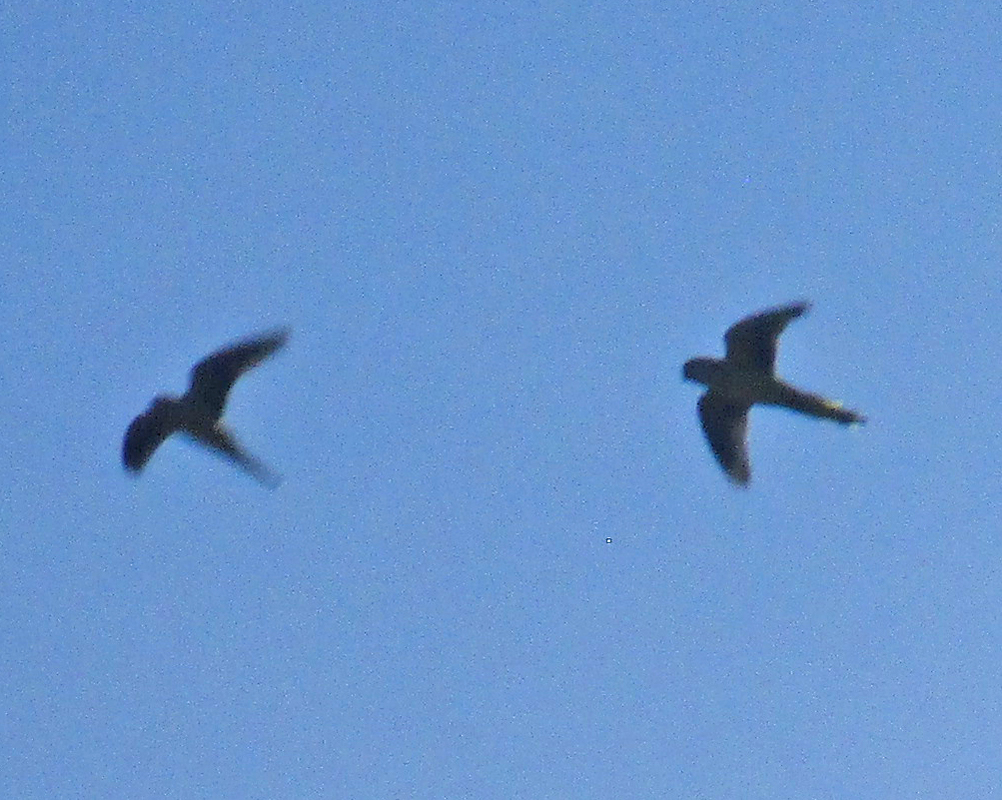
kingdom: Animalia
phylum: Chordata
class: Aves
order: Psittaciformes
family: Psittacidae
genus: Myiopsitta
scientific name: Myiopsitta monachus
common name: Monk parakeet
